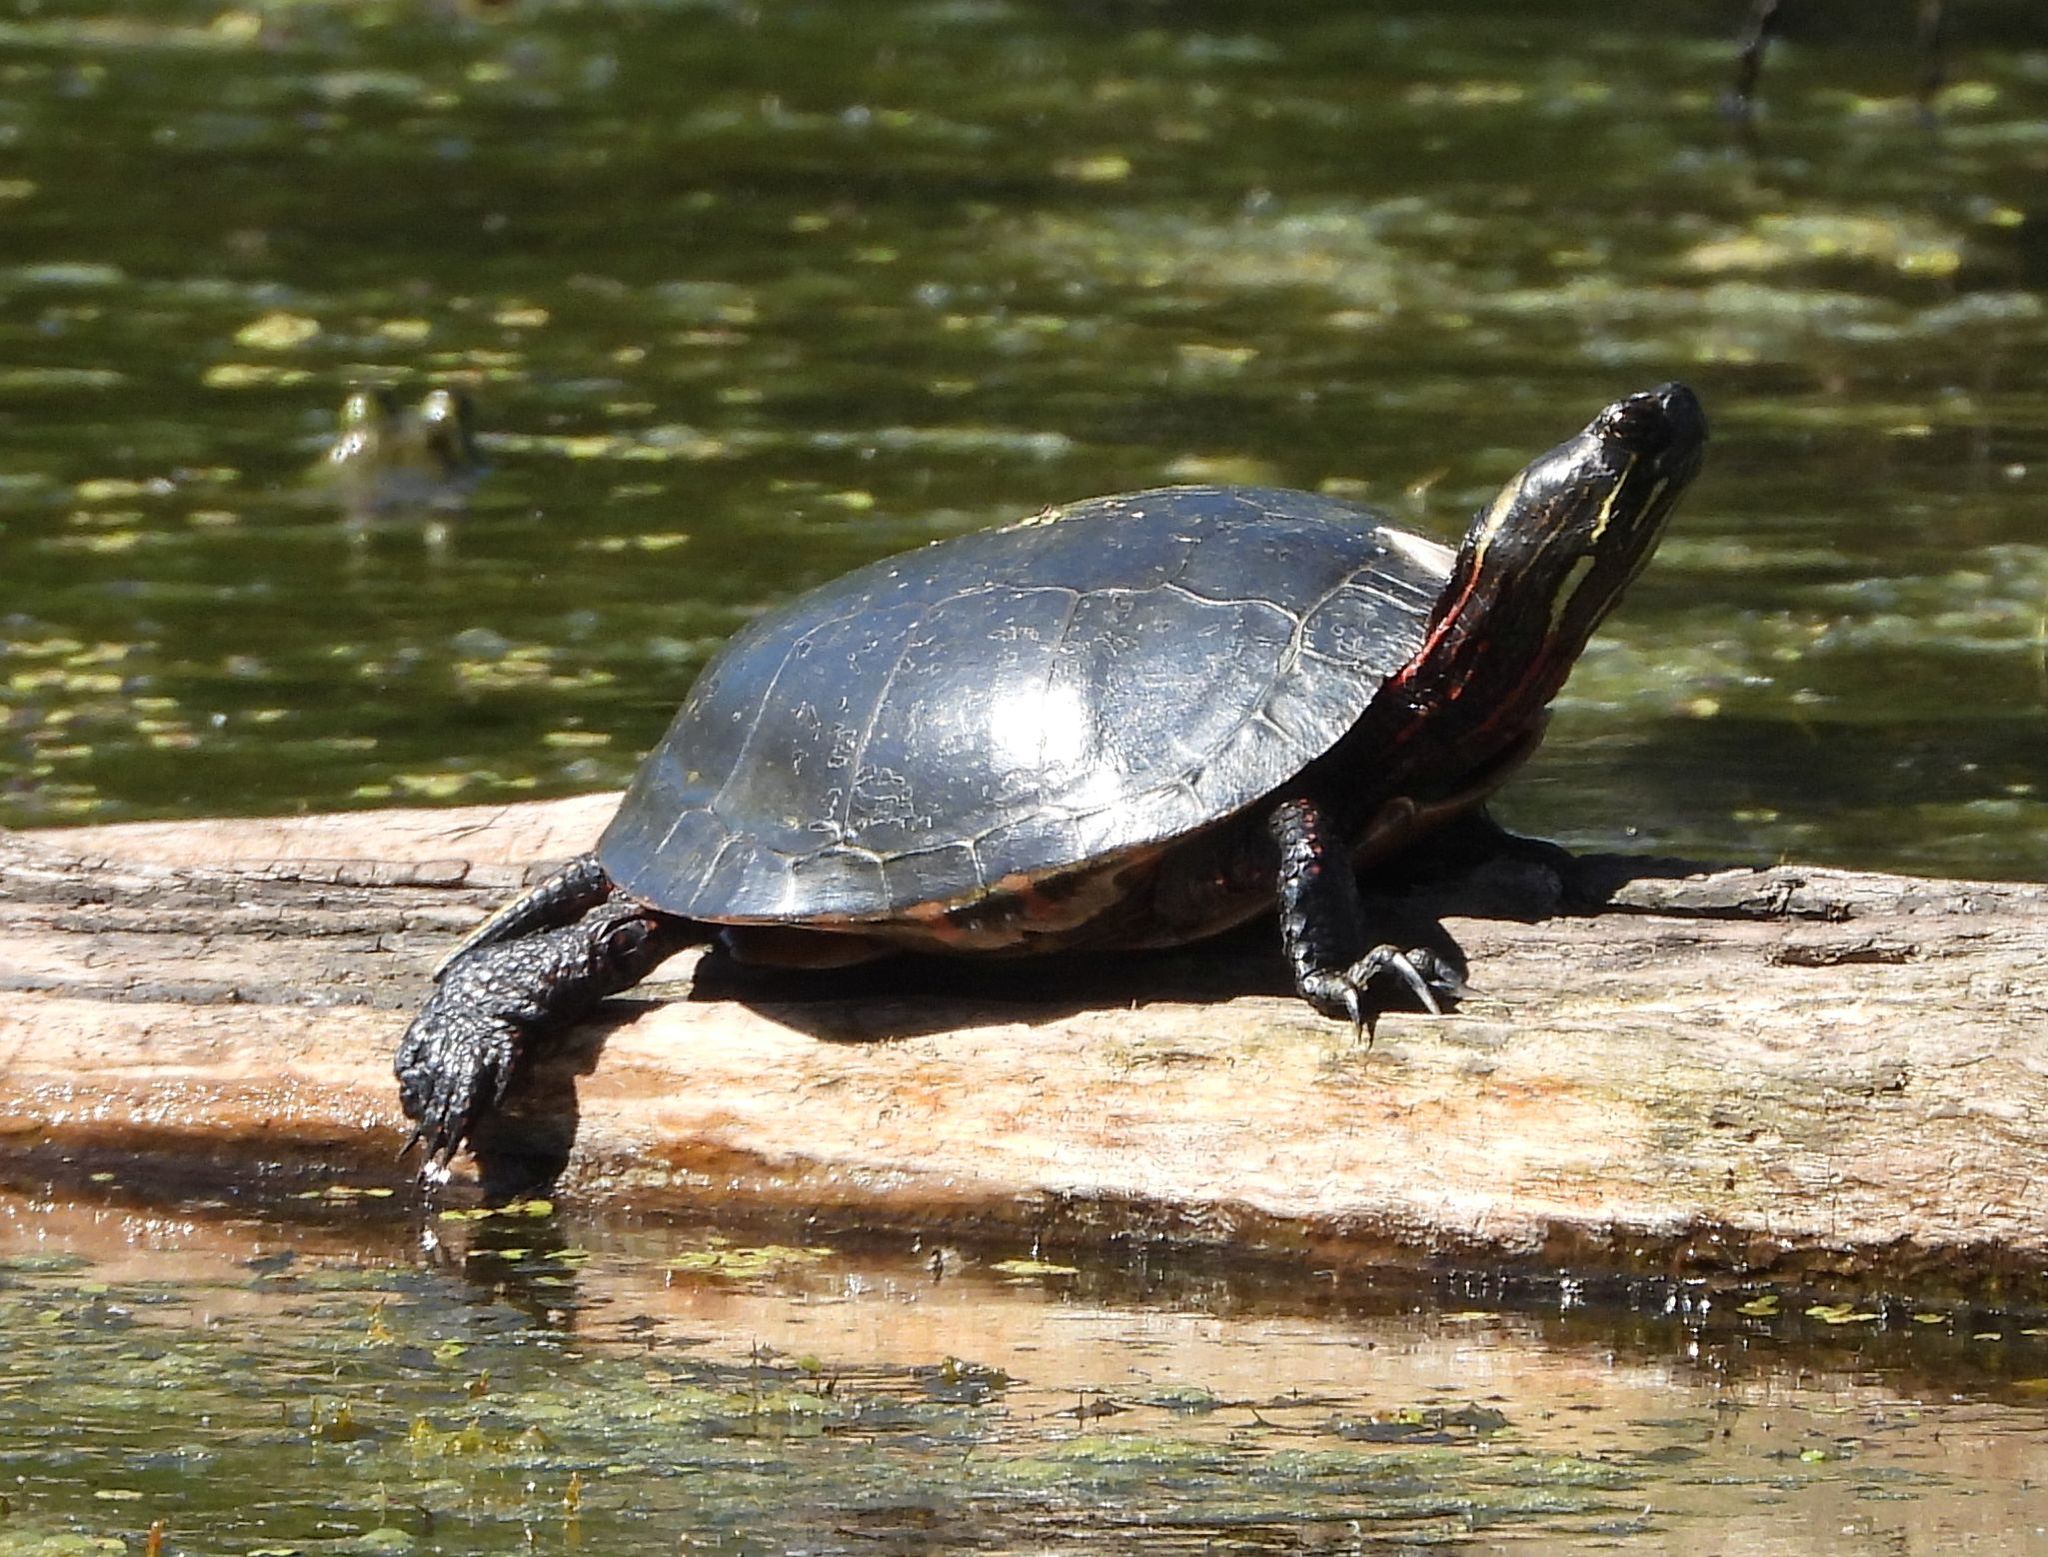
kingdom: Animalia
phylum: Chordata
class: Testudines
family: Emydidae
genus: Chrysemys
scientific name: Chrysemys picta
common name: Painted turtle
